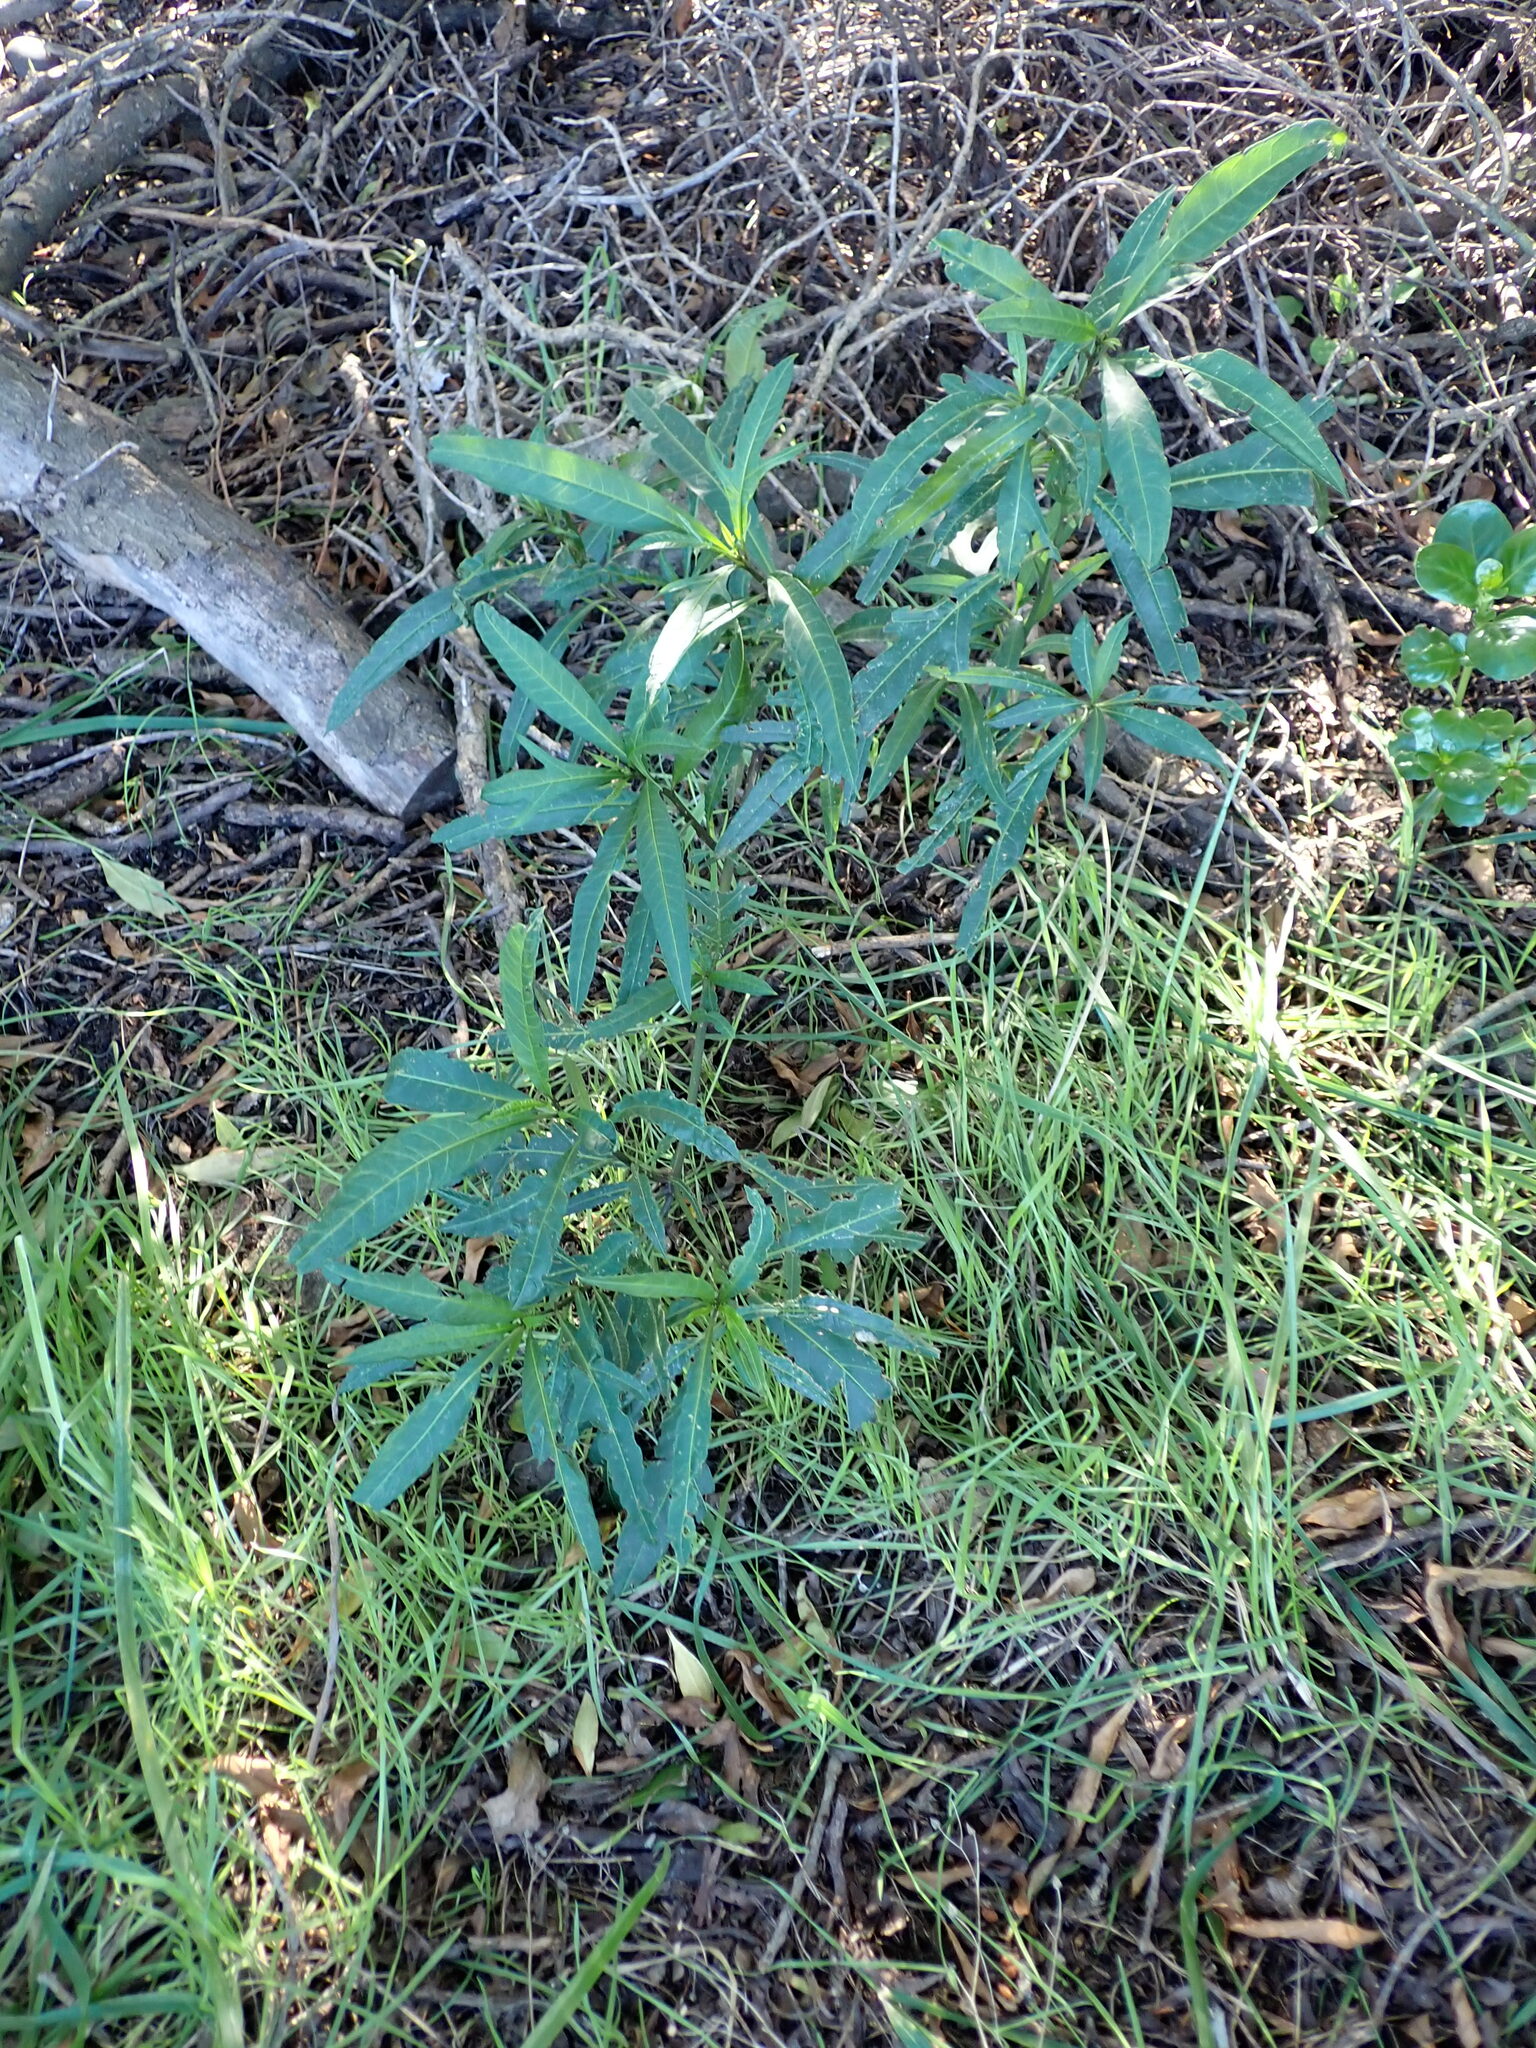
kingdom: Plantae
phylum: Tracheophyta
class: Magnoliopsida
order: Solanales
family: Solanaceae
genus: Solanum
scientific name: Solanum
